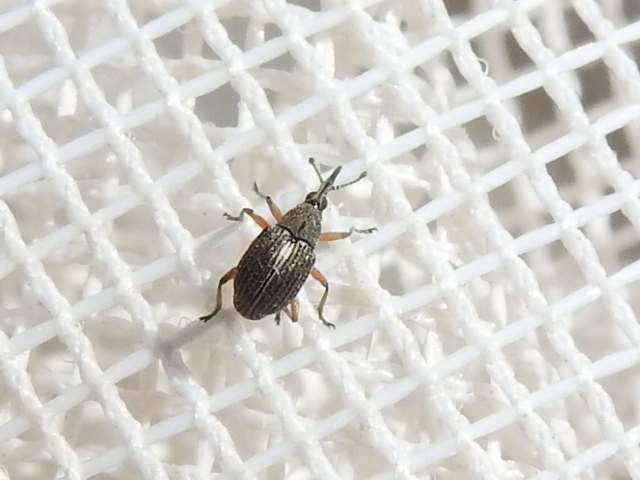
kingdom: Animalia
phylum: Arthropoda
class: Insecta
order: Coleoptera
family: Brentidae
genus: Coelocephalapion
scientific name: Coelocephalapion
